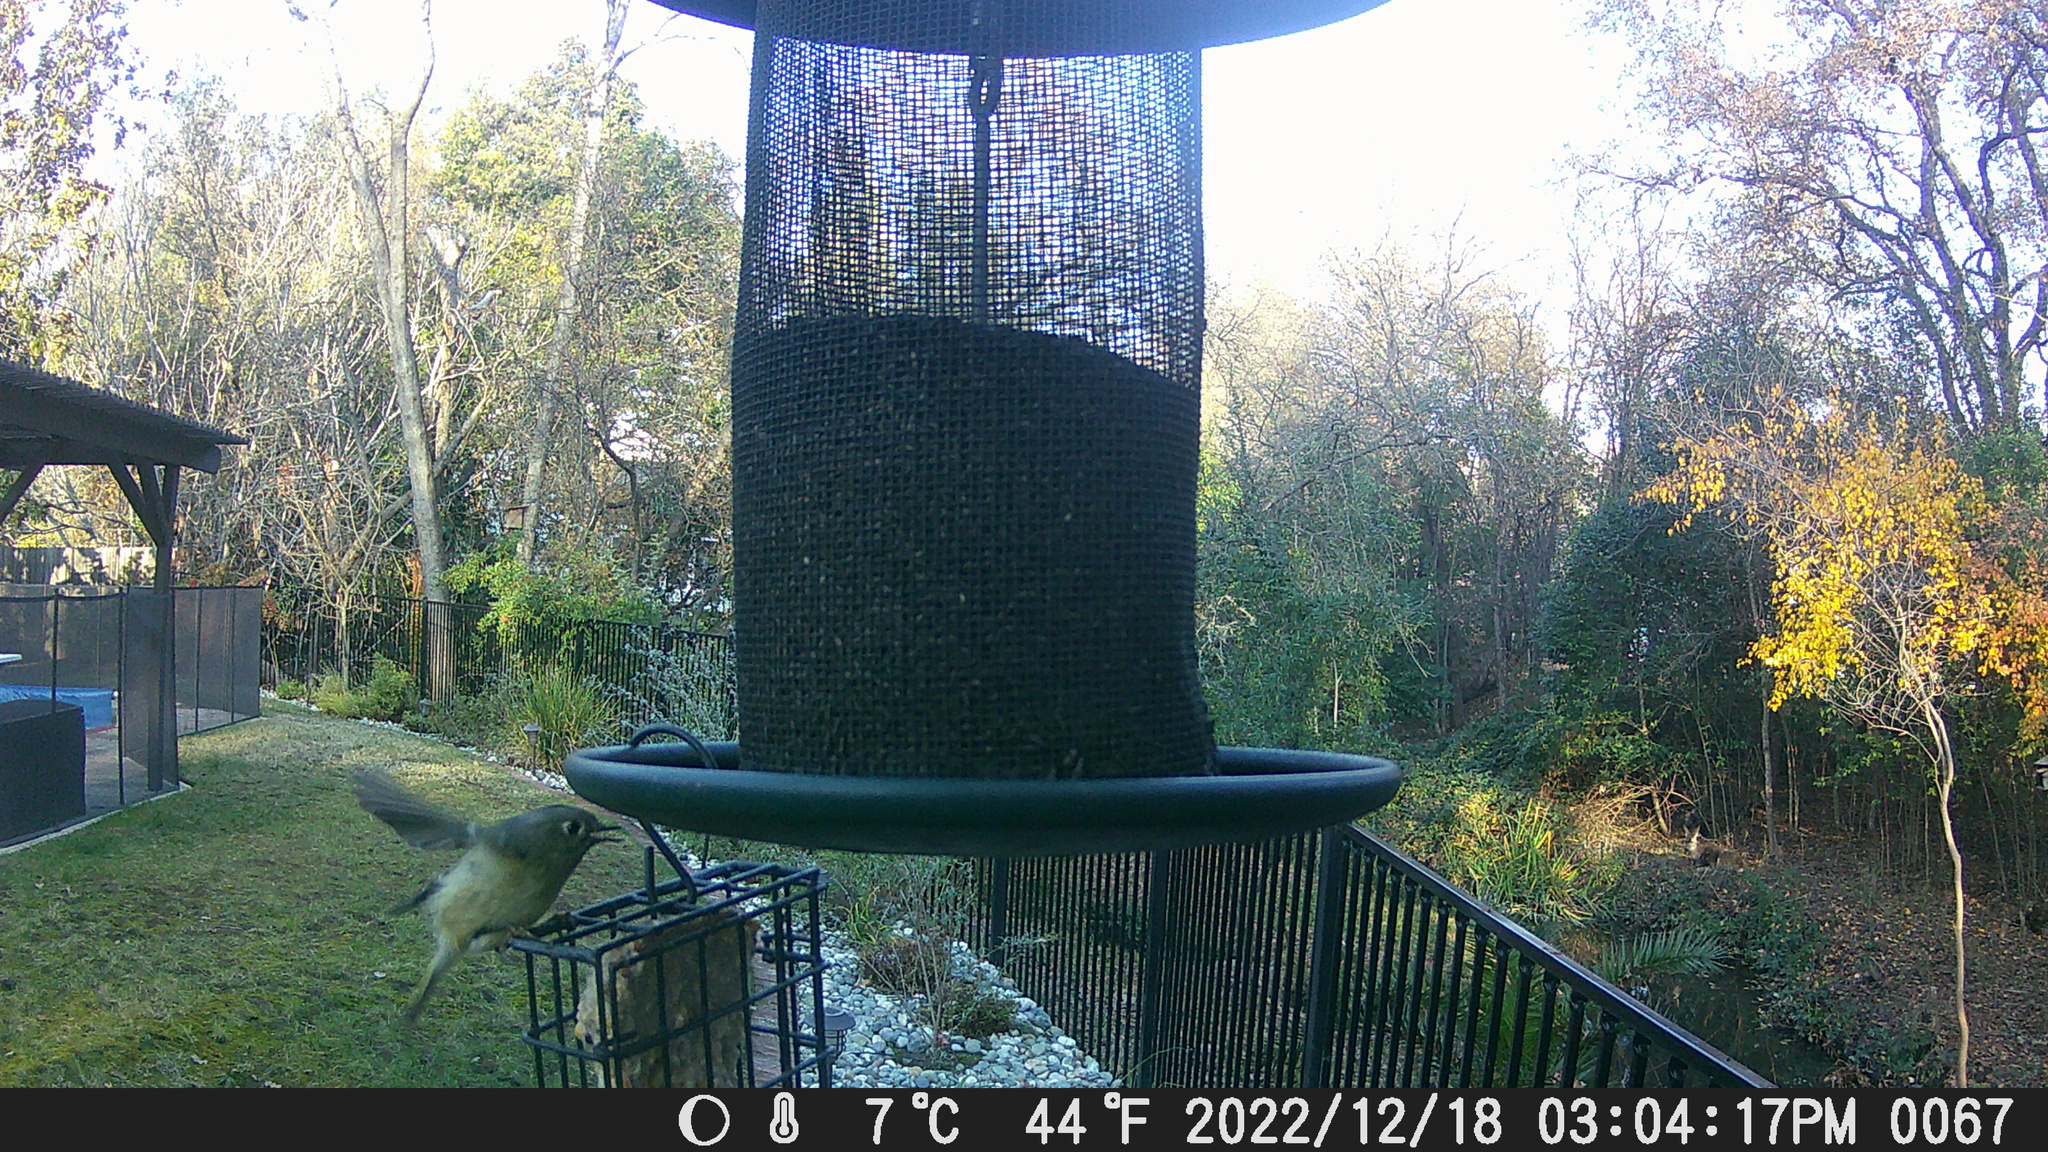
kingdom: Animalia
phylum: Chordata
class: Aves
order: Passeriformes
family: Regulidae
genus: Regulus
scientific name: Regulus calendula
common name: Ruby-crowned kinglet
